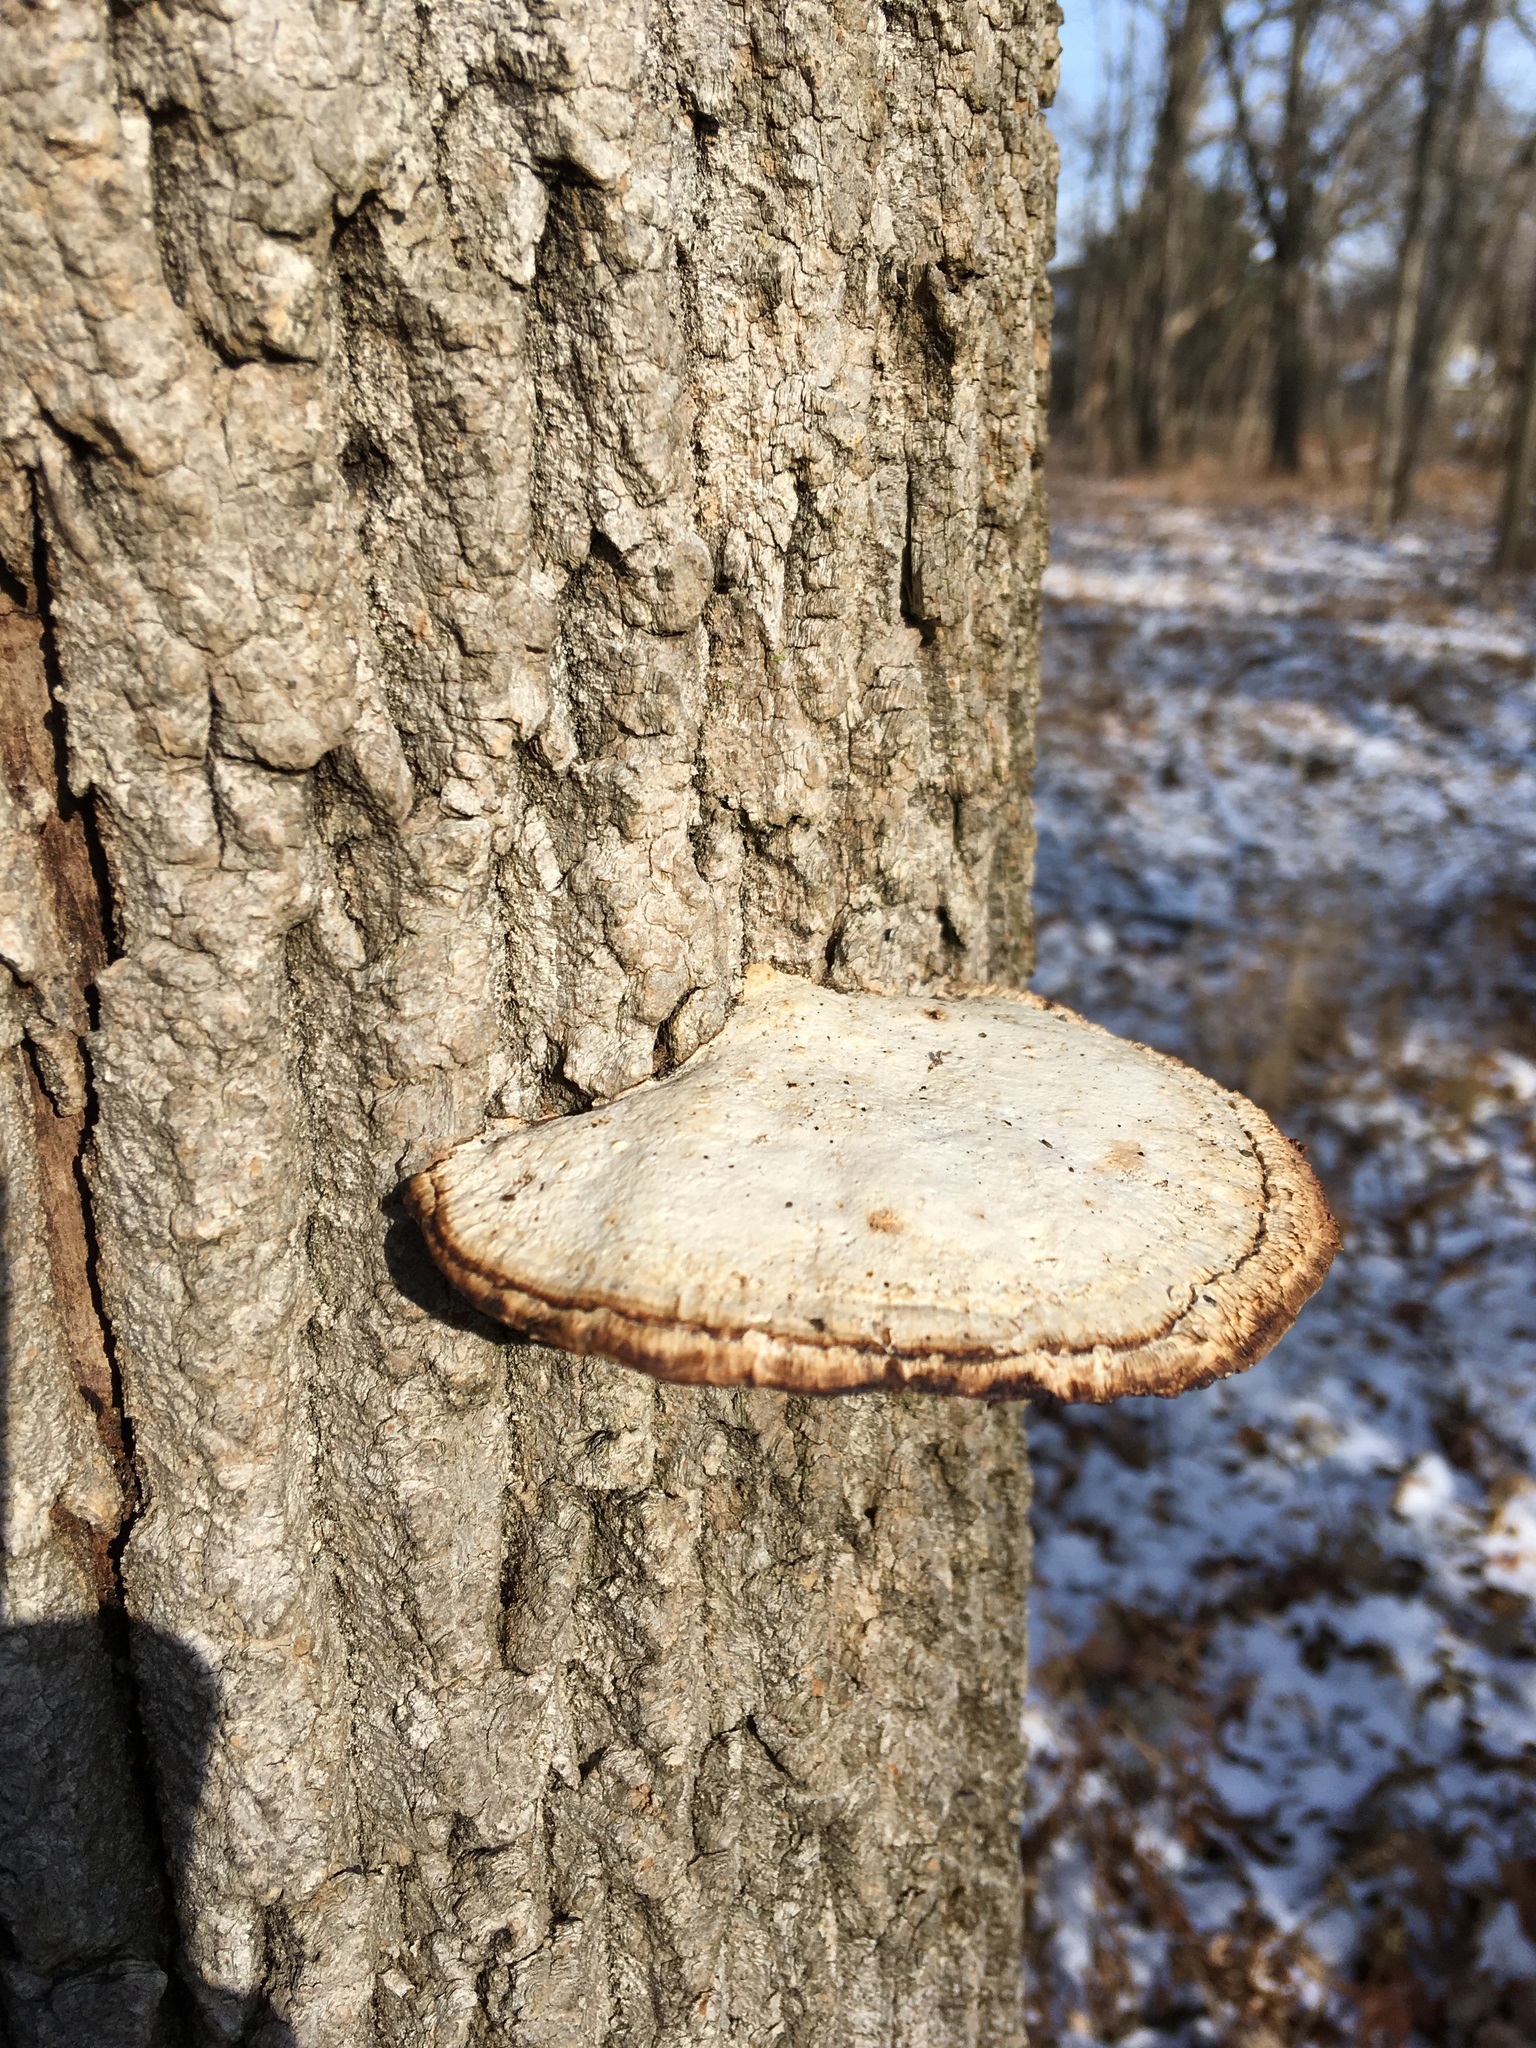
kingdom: Fungi
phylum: Basidiomycota
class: Agaricomycetes
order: Polyporales
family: Polyporaceae
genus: Daedaleopsis
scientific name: Daedaleopsis confragosa
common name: Blushing bracket
